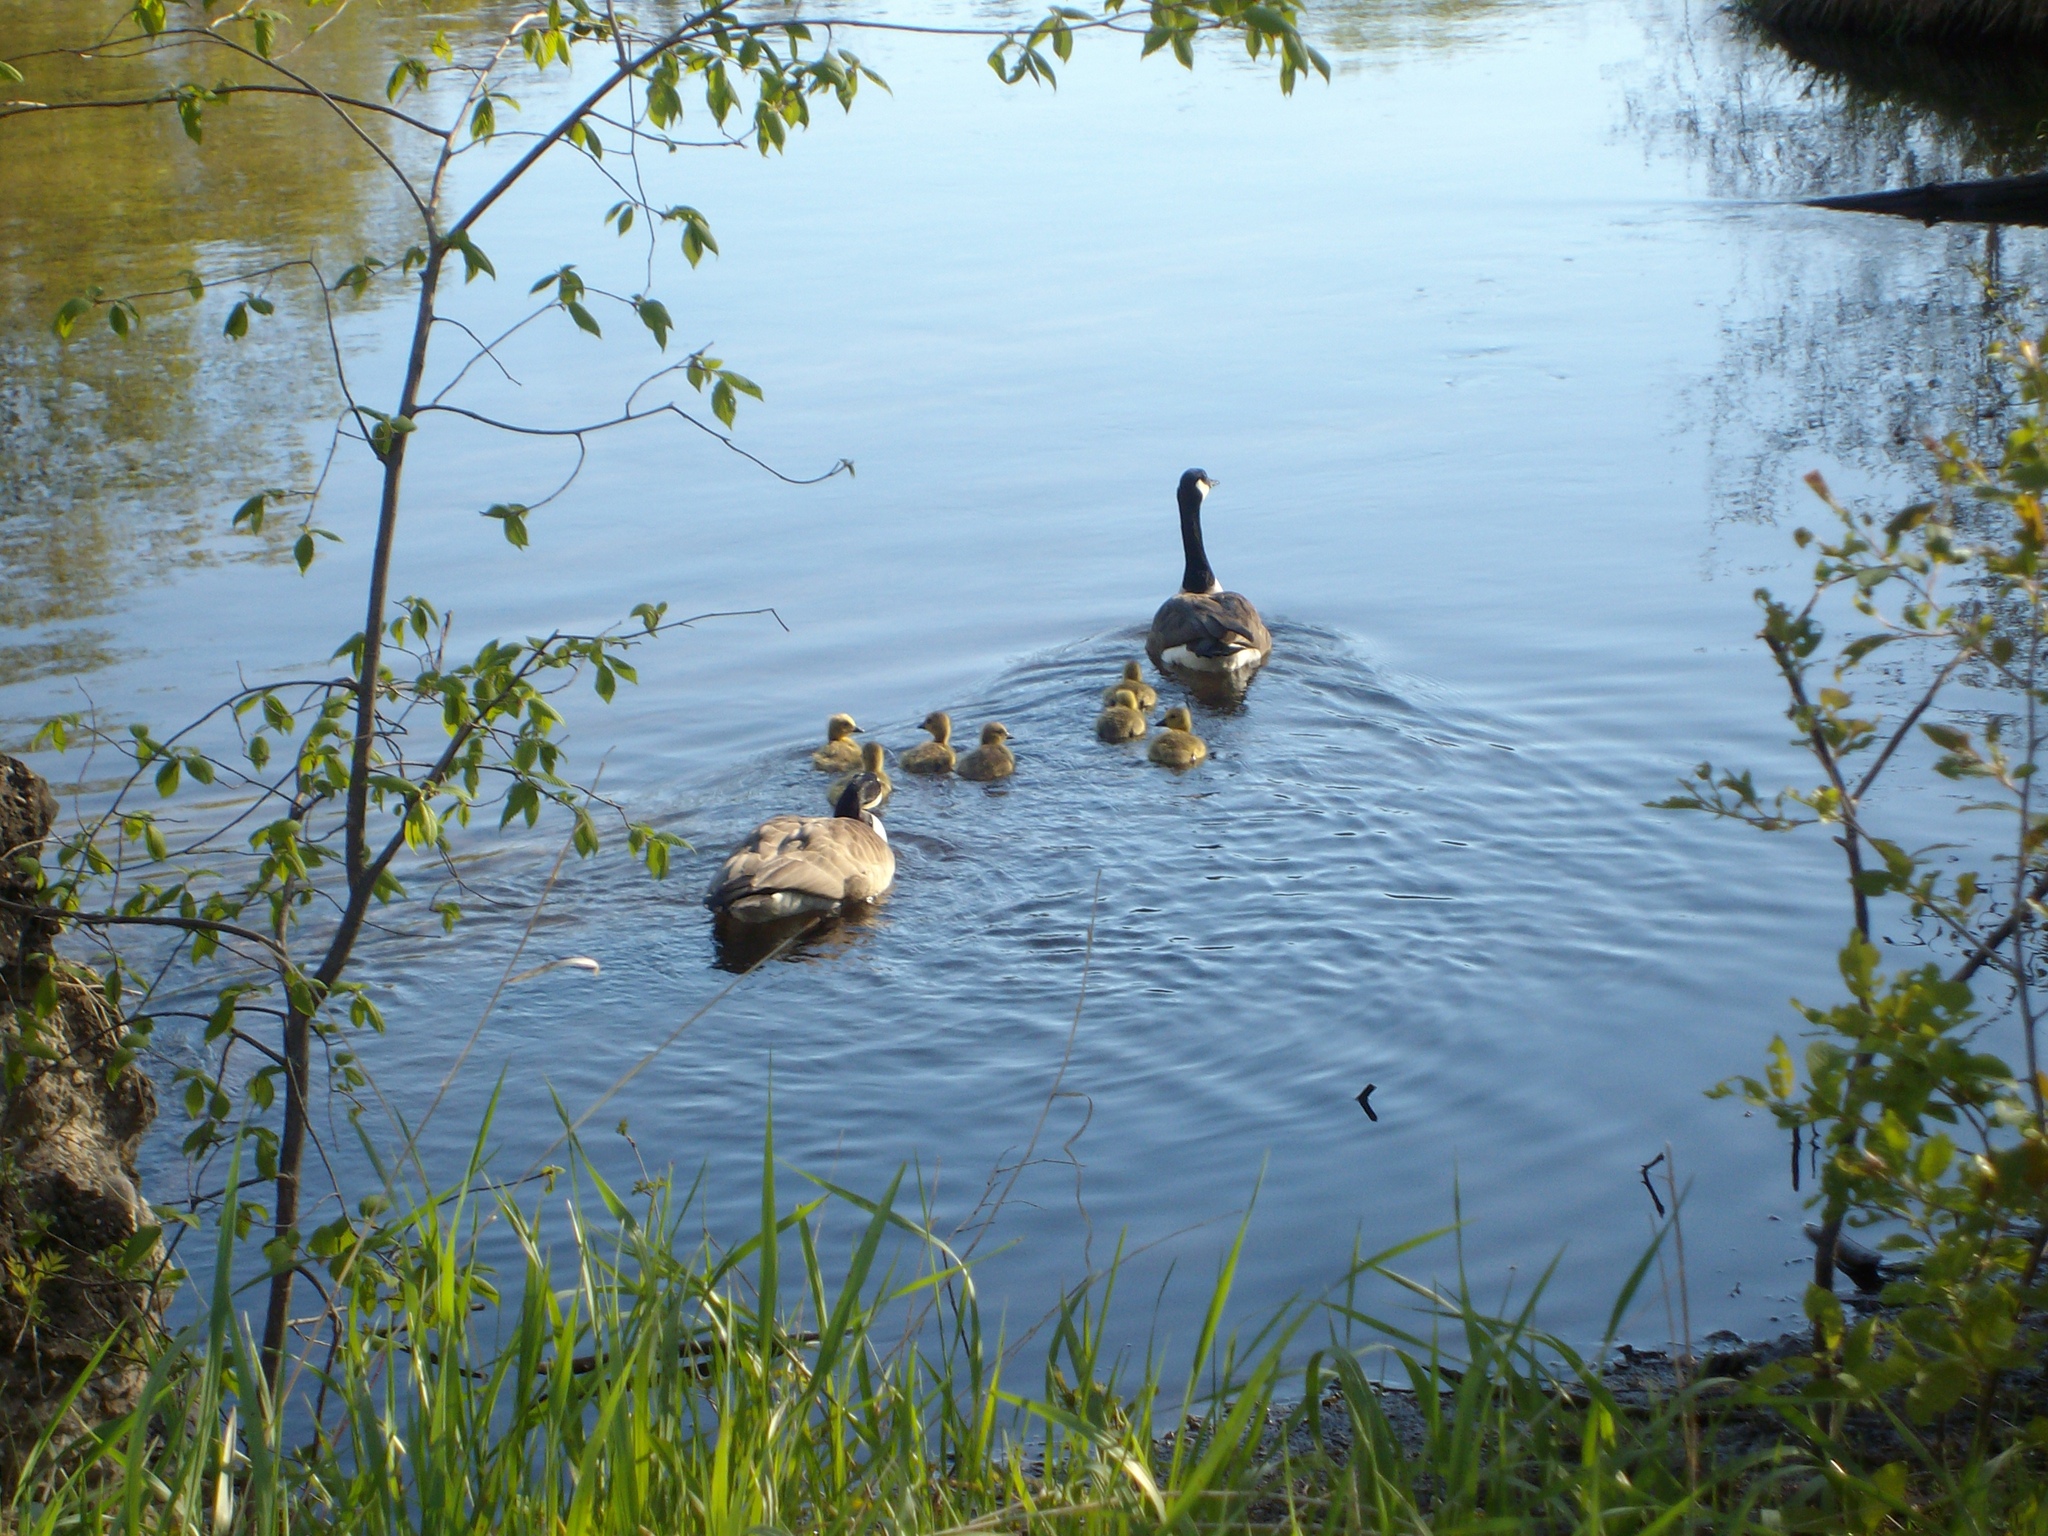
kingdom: Animalia
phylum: Chordata
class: Aves
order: Anseriformes
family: Anatidae
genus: Branta
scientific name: Branta canadensis
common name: Canada goose
